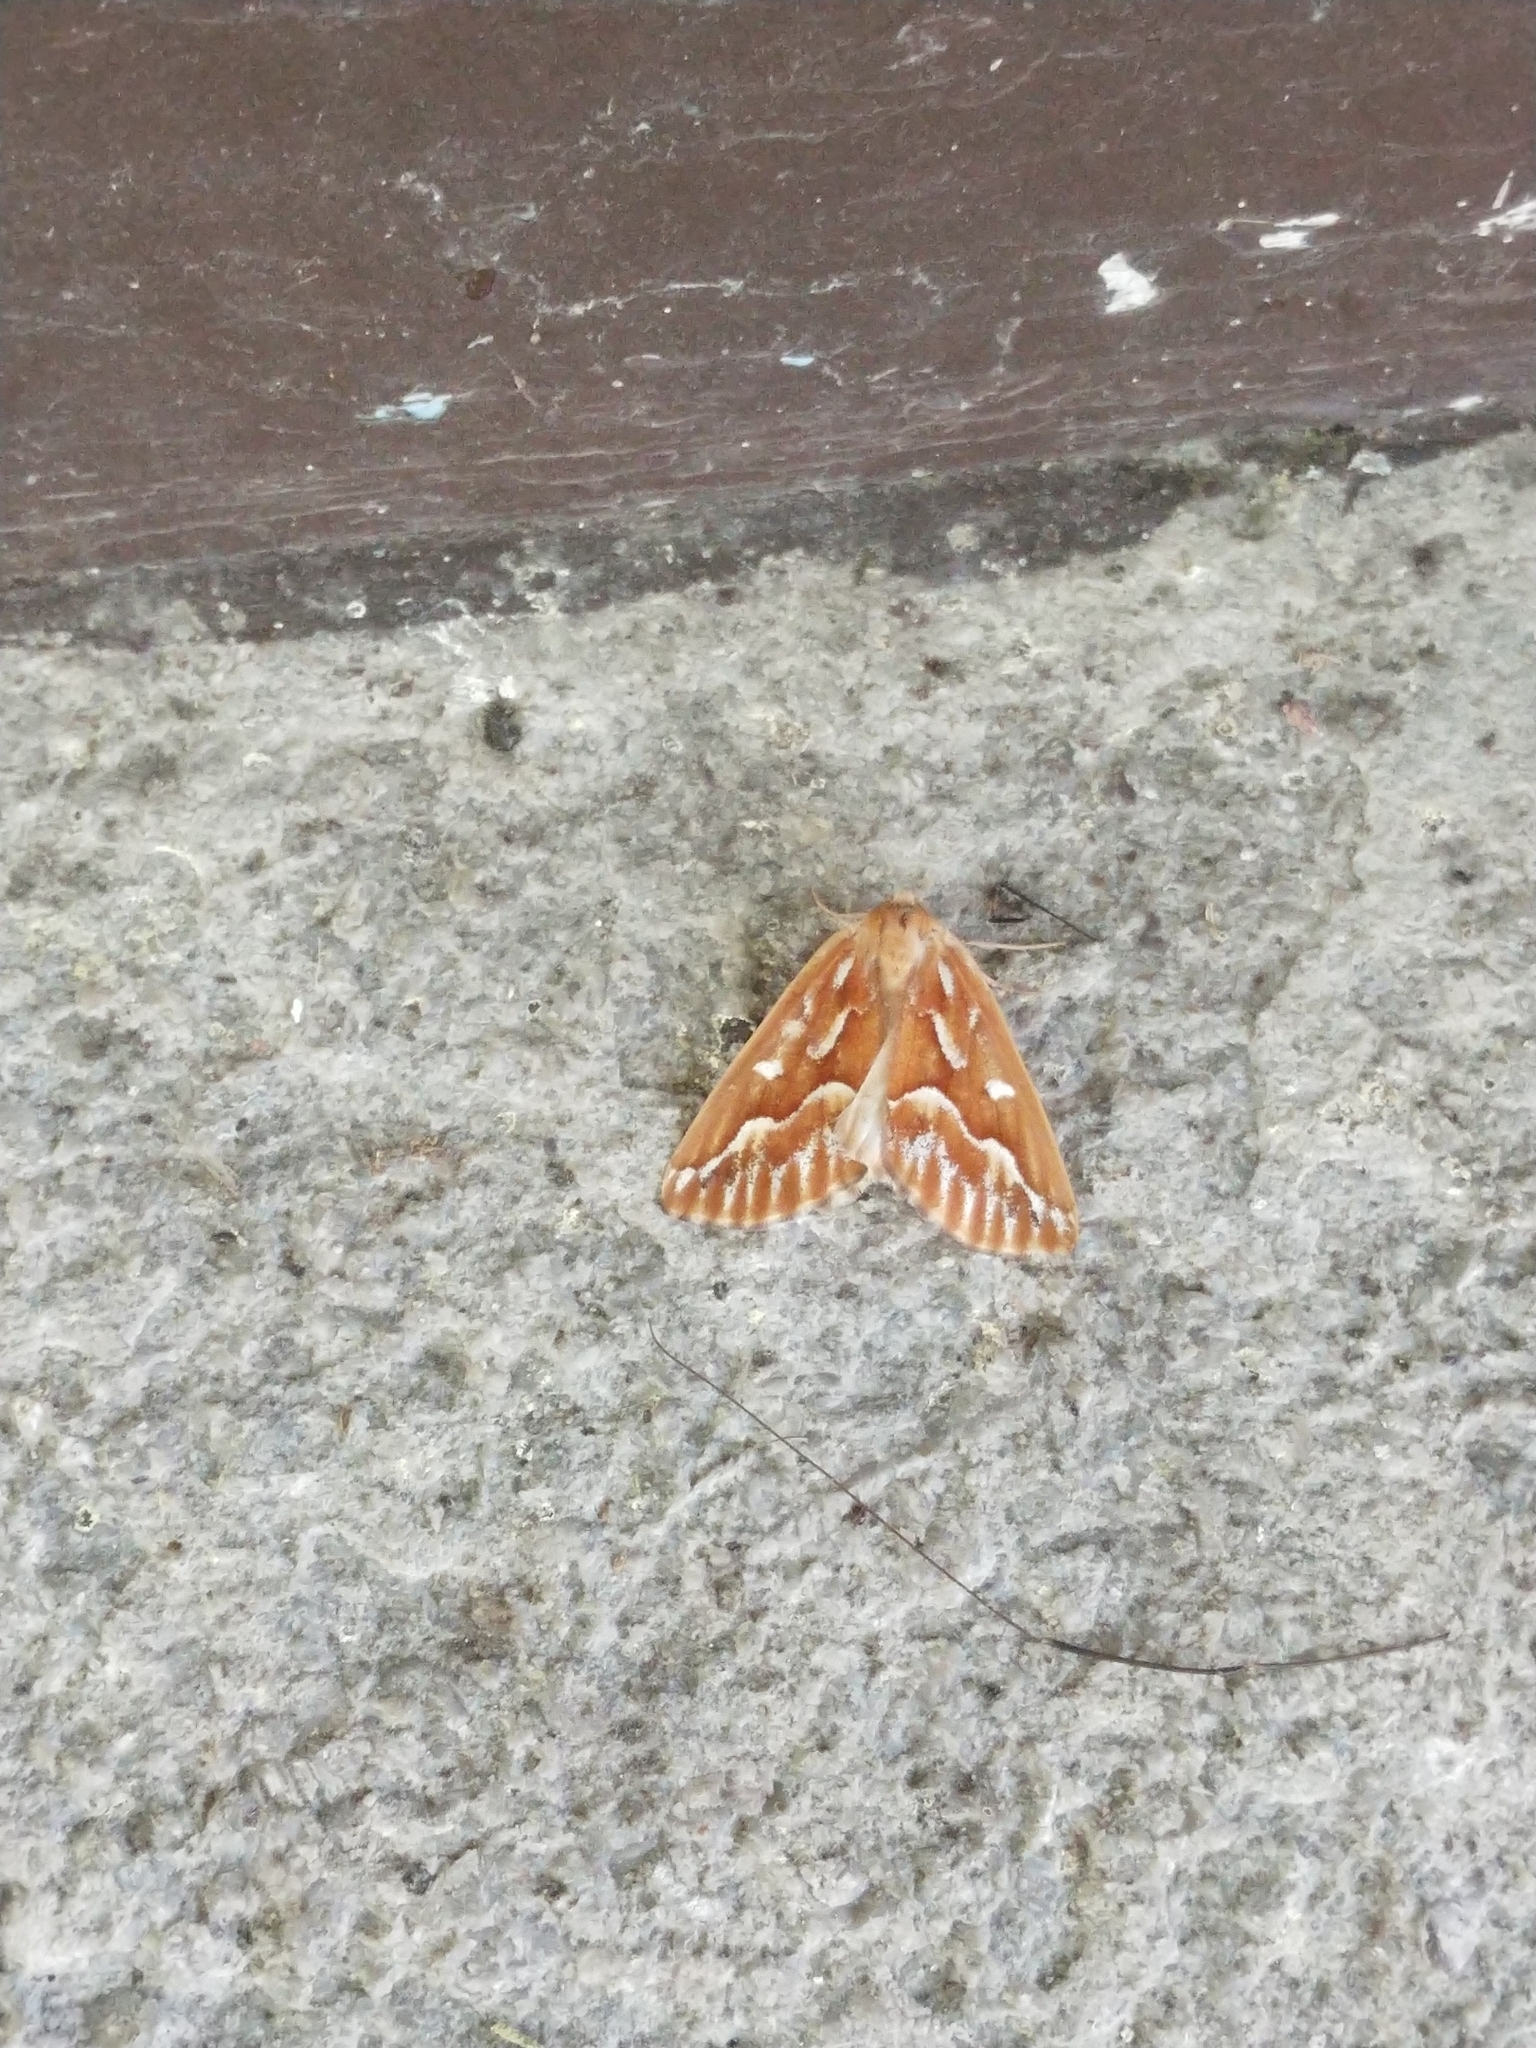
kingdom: Animalia
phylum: Arthropoda
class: Insecta
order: Lepidoptera
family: Geometridae
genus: Caripeta
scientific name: Caripeta piniata
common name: Northern pine looper moth
